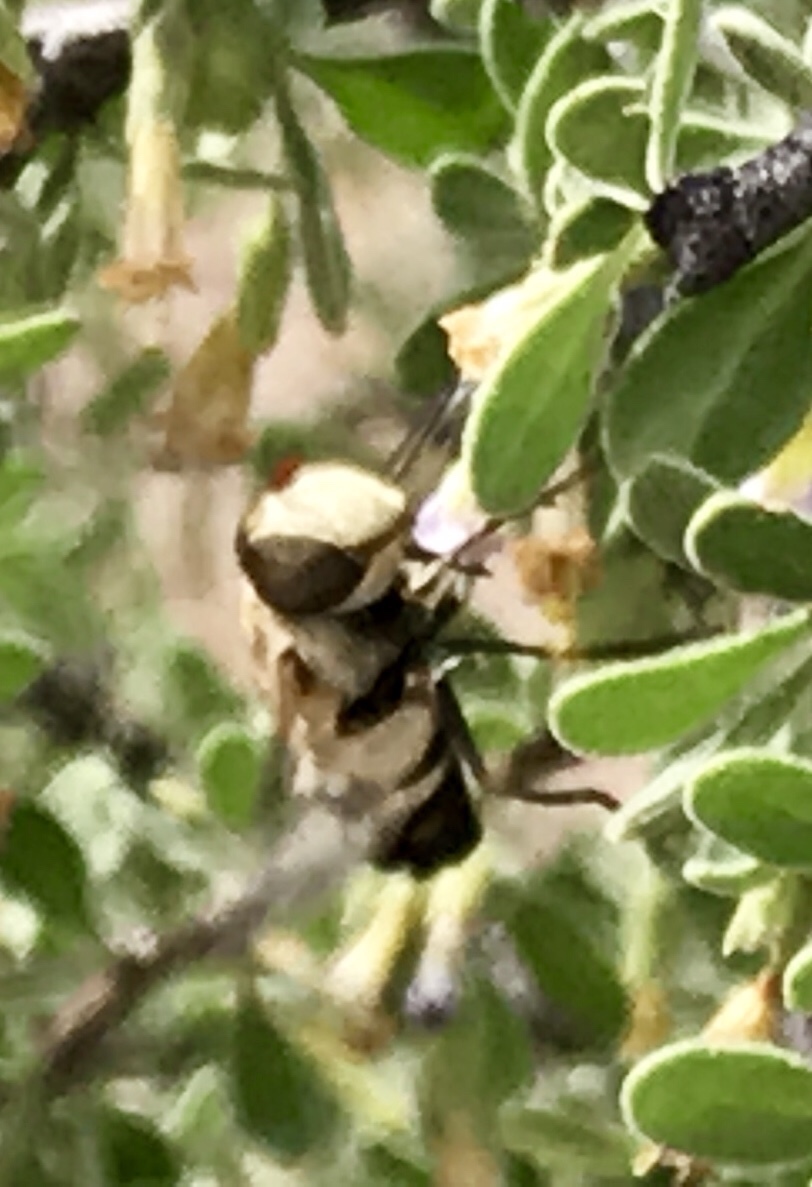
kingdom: Animalia
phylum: Arthropoda
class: Insecta
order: Diptera
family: Syrphidae
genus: Copestylum
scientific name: Copestylum apiciferum
